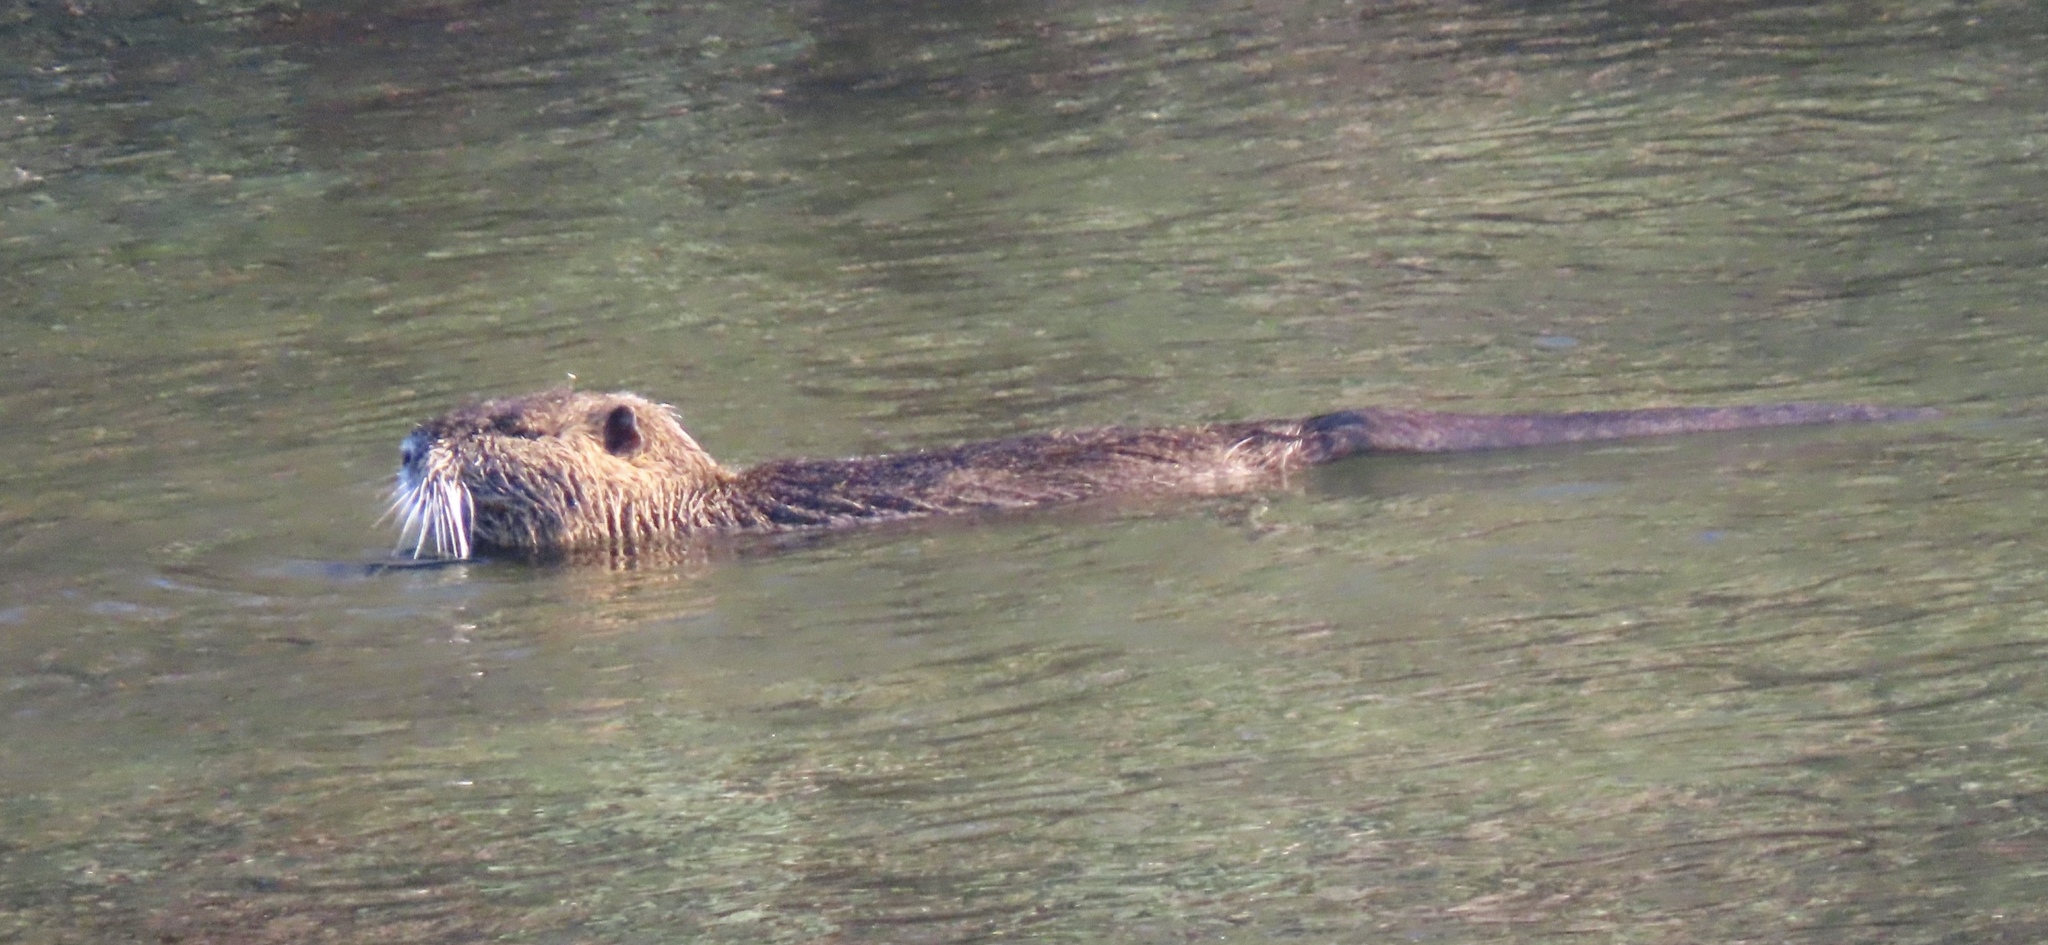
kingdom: Animalia
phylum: Chordata
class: Mammalia
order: Rodentia
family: Myocastoridae
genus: Myocastor
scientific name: Myocastor coypus
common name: Coypu
